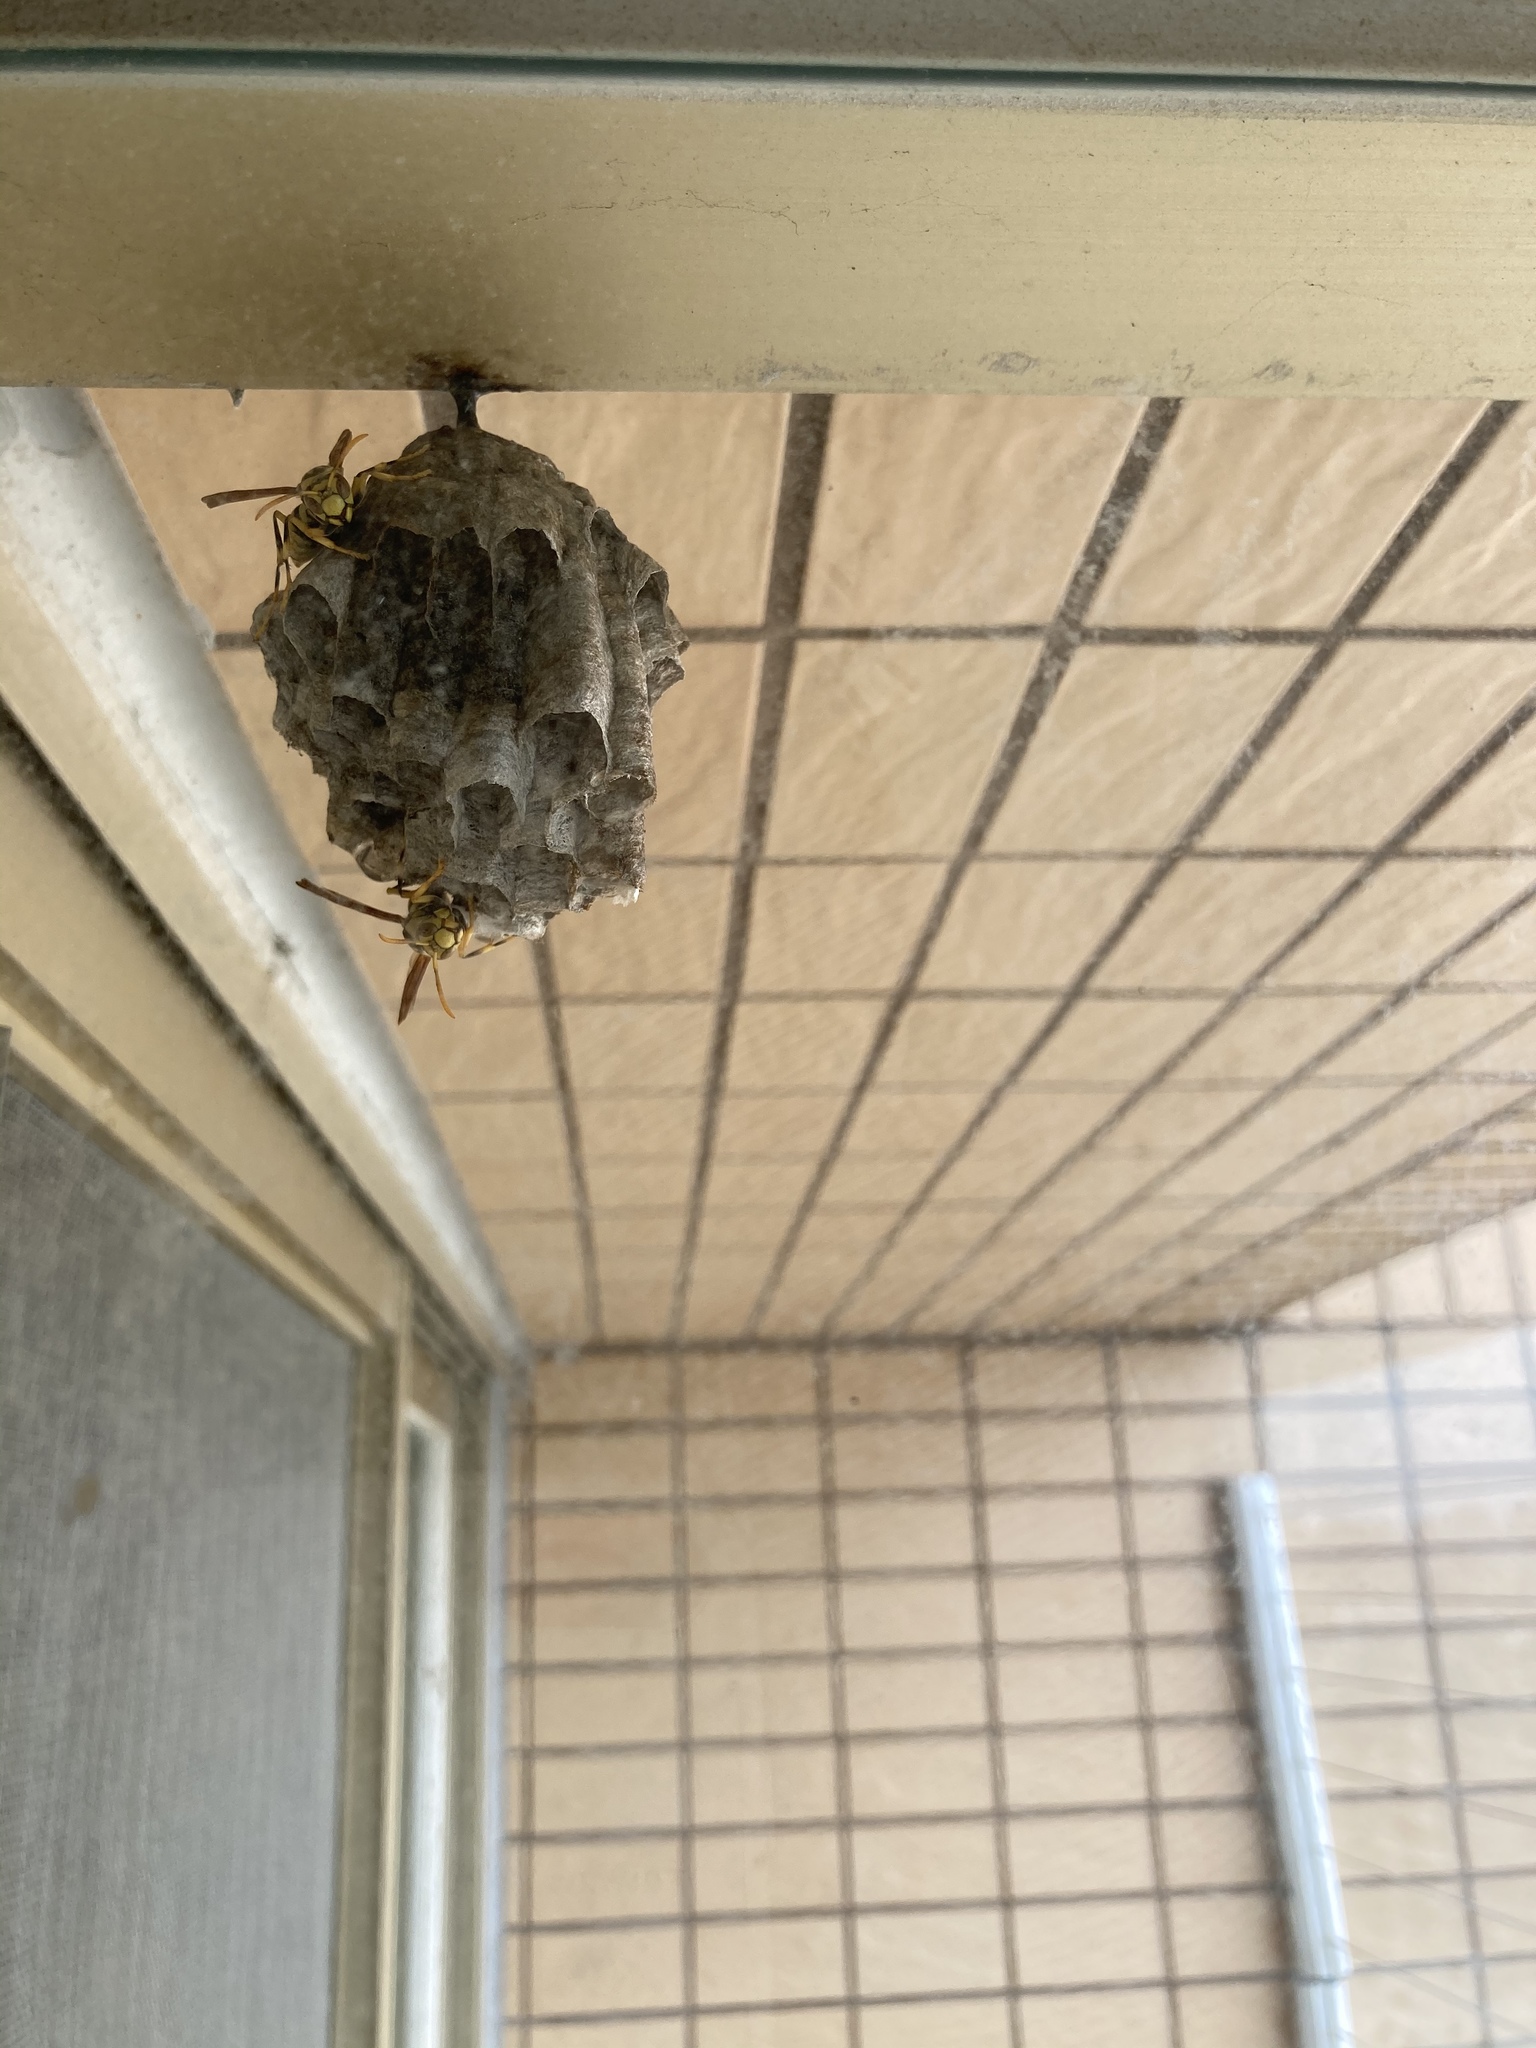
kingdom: Animalia
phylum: Arthropoda
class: Insecta
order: Hymenoptera
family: Eumenidae
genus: Polistes
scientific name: Polistes rothneyi
